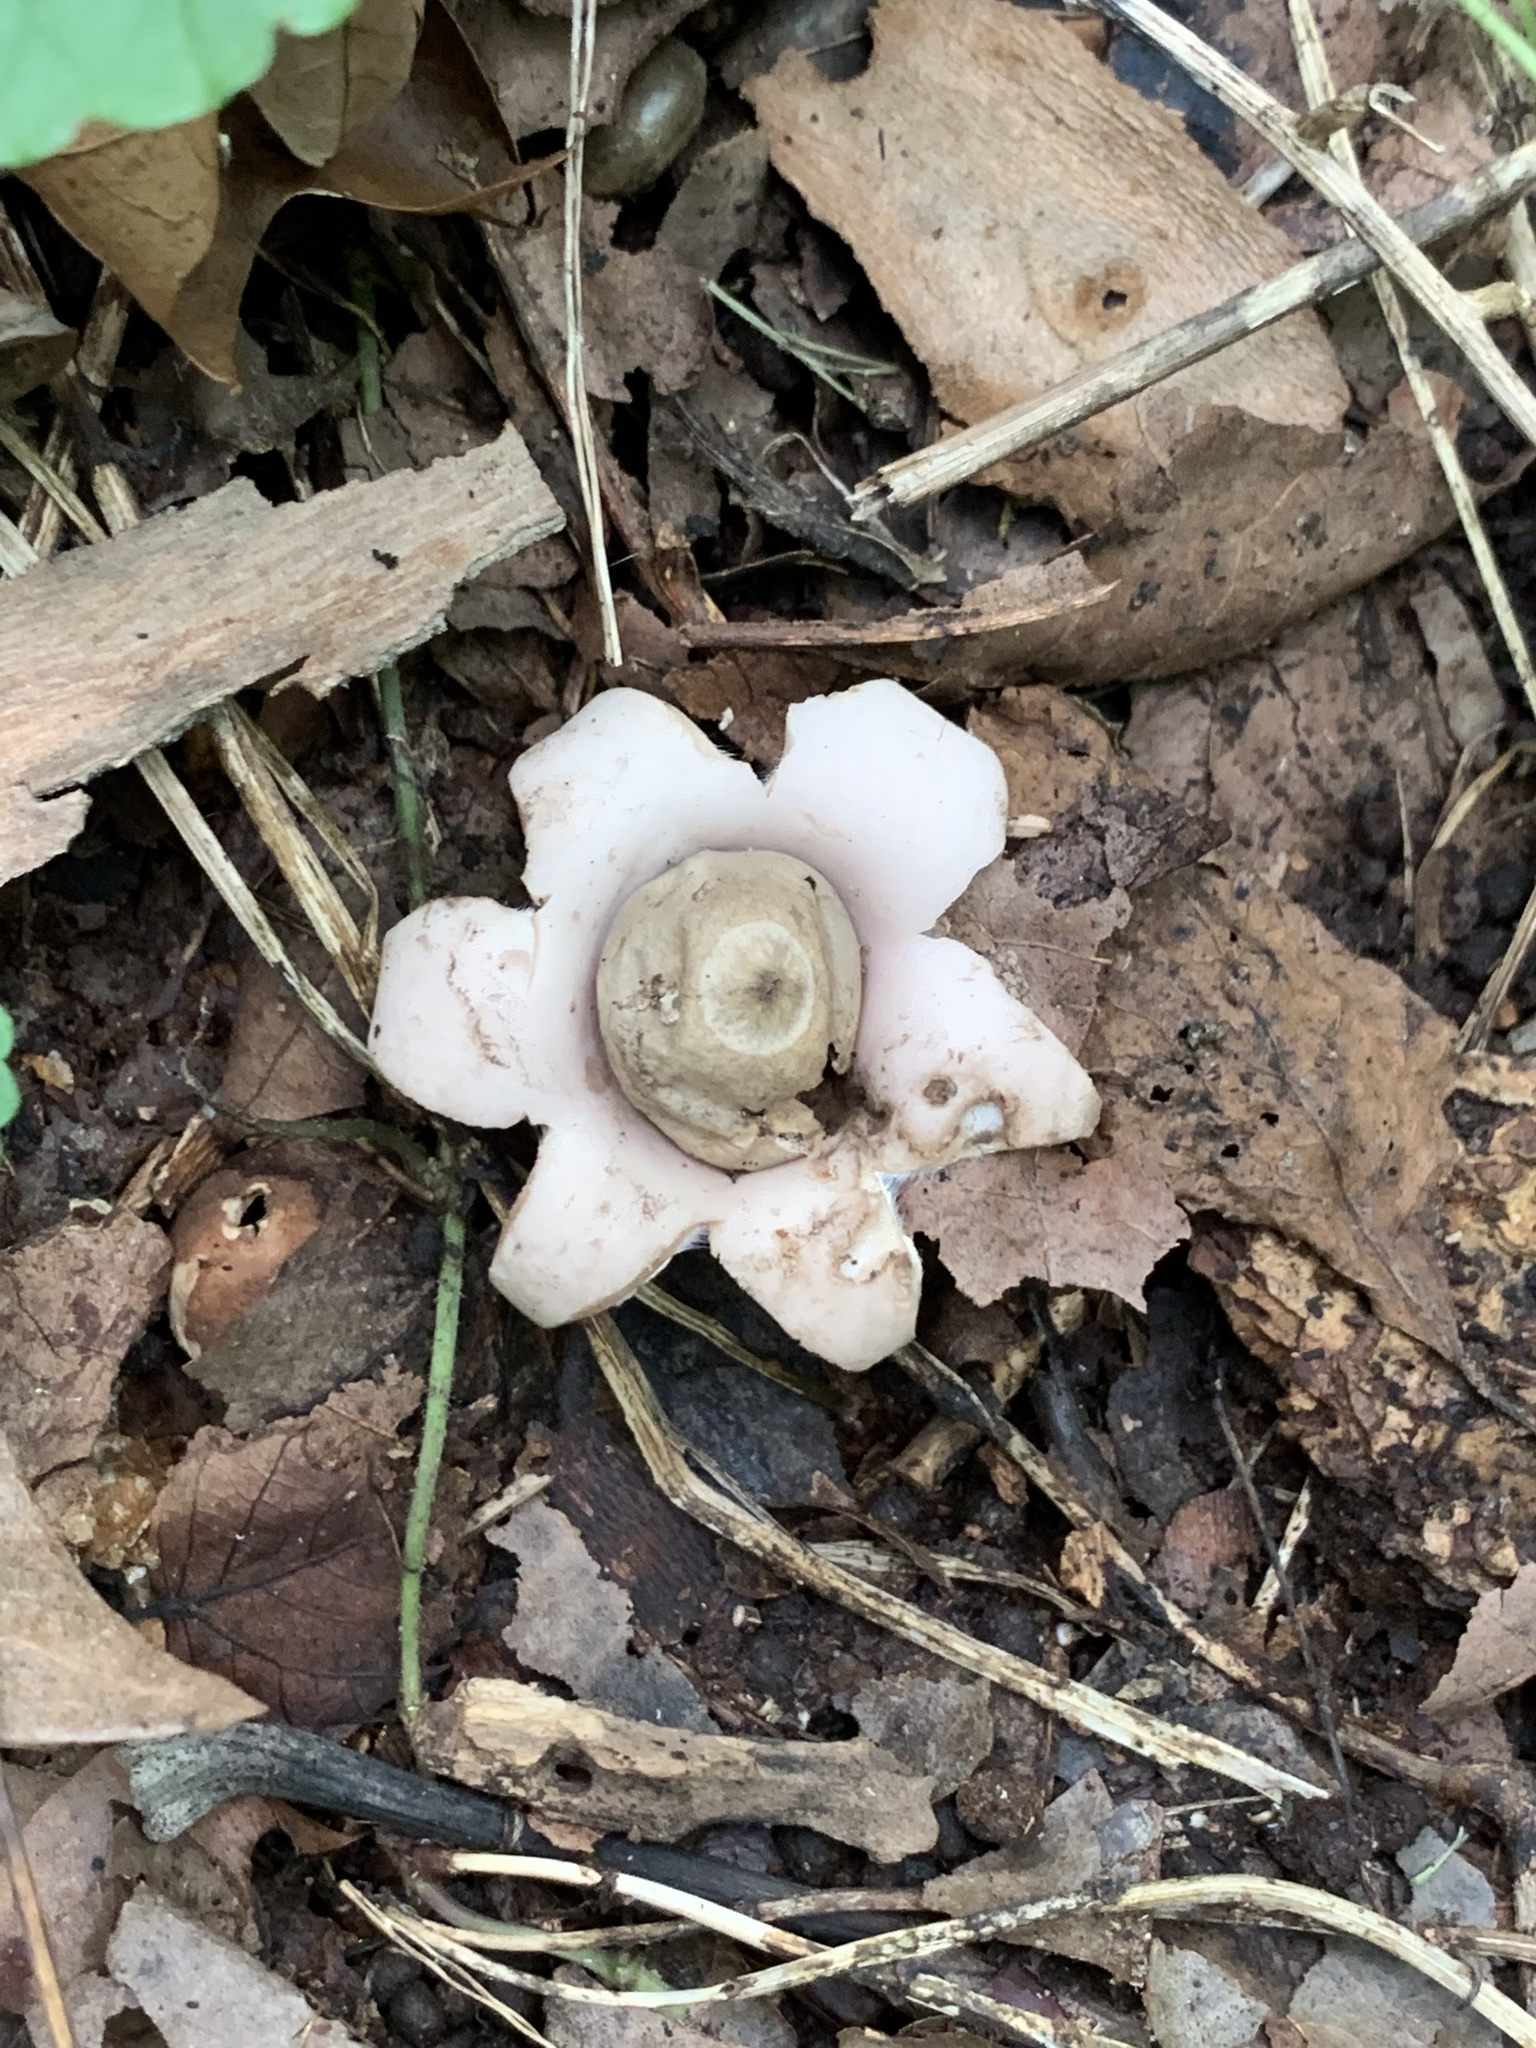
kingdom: Fungi
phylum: Basidiomycota
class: Agaricomycetes
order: Geastrales
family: Geastraceae
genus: Geastrum
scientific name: Geastrum saccatum
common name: Rounded earthstar
